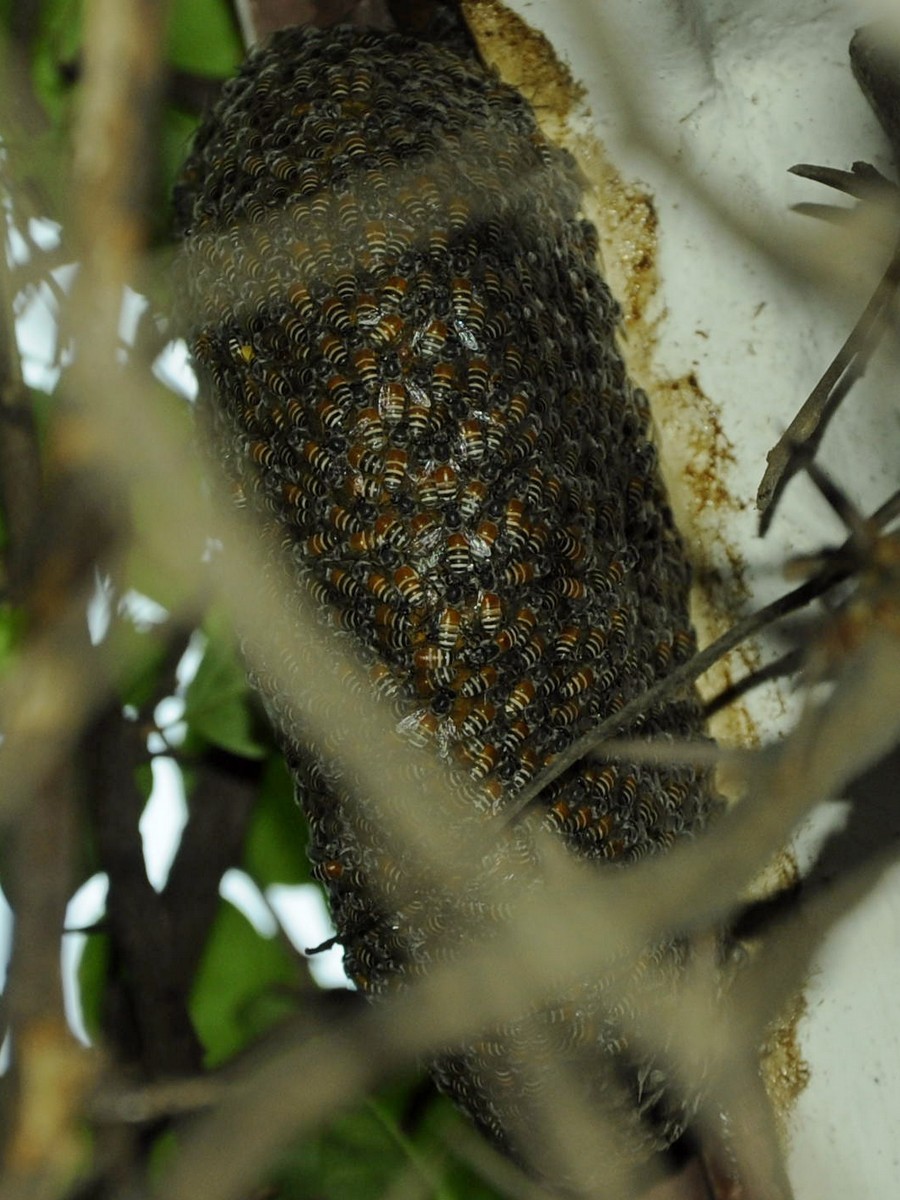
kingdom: Animalia
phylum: Arthropoda
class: Insecta
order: Hymenoptera
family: Apidae
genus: Apis
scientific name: Apis florea
